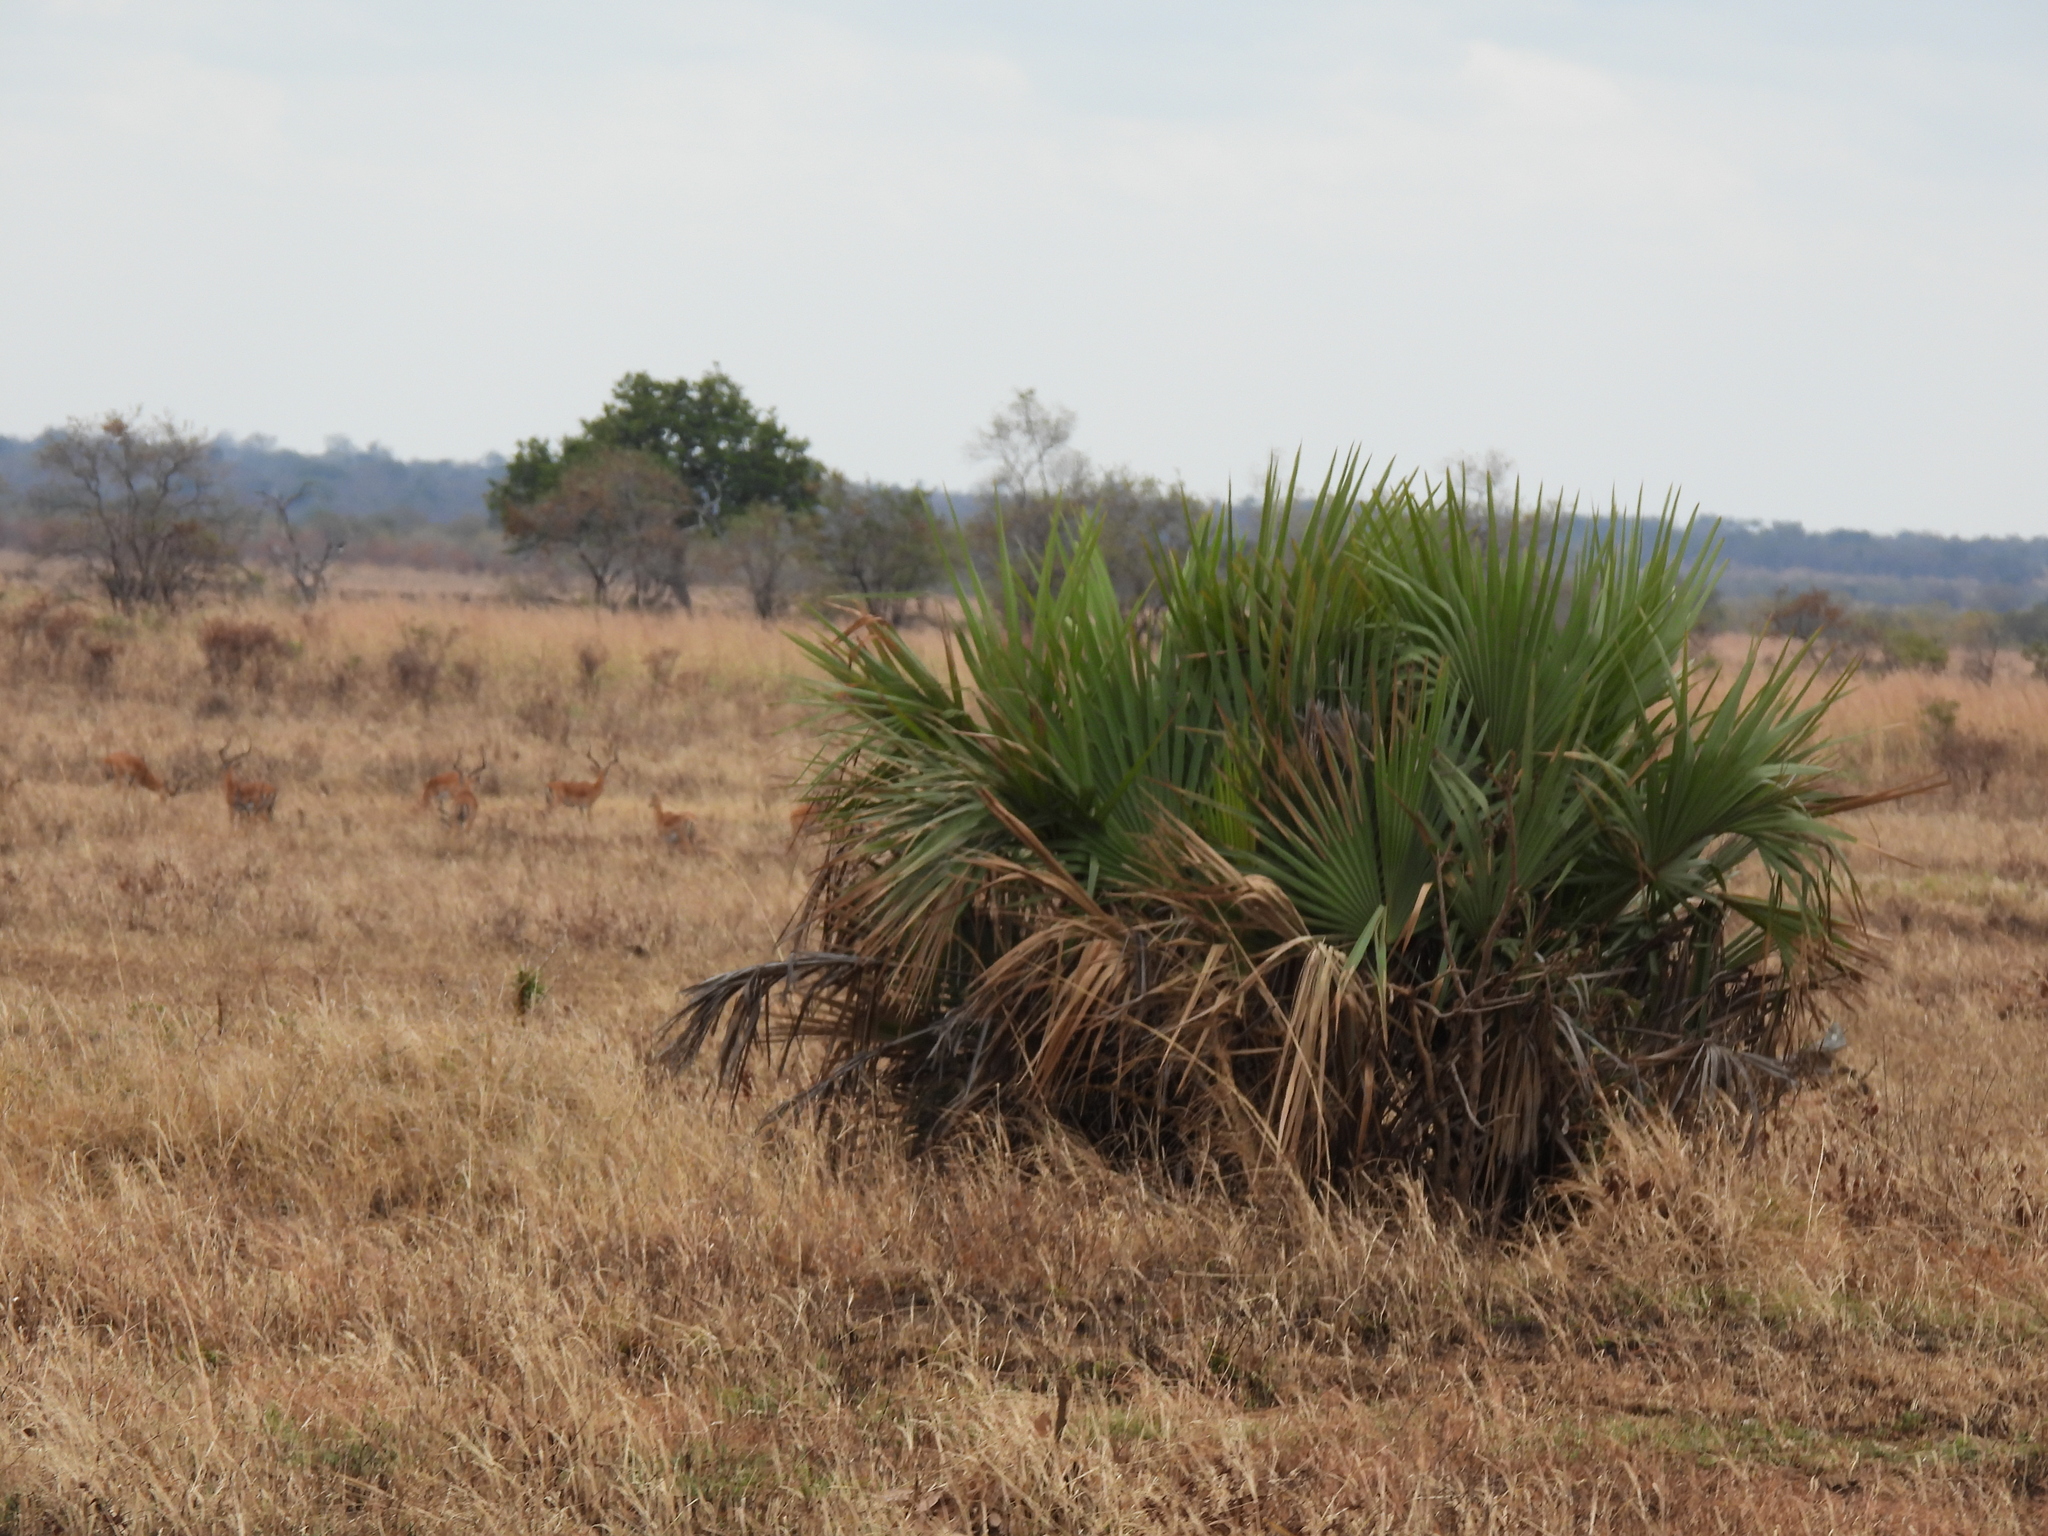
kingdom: Plantae
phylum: Tracheophyta
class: Liliopsida
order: Arecales
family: Arecaceae
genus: Hyphaene
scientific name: Hyphaene petersiana
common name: African ivory nut palm
